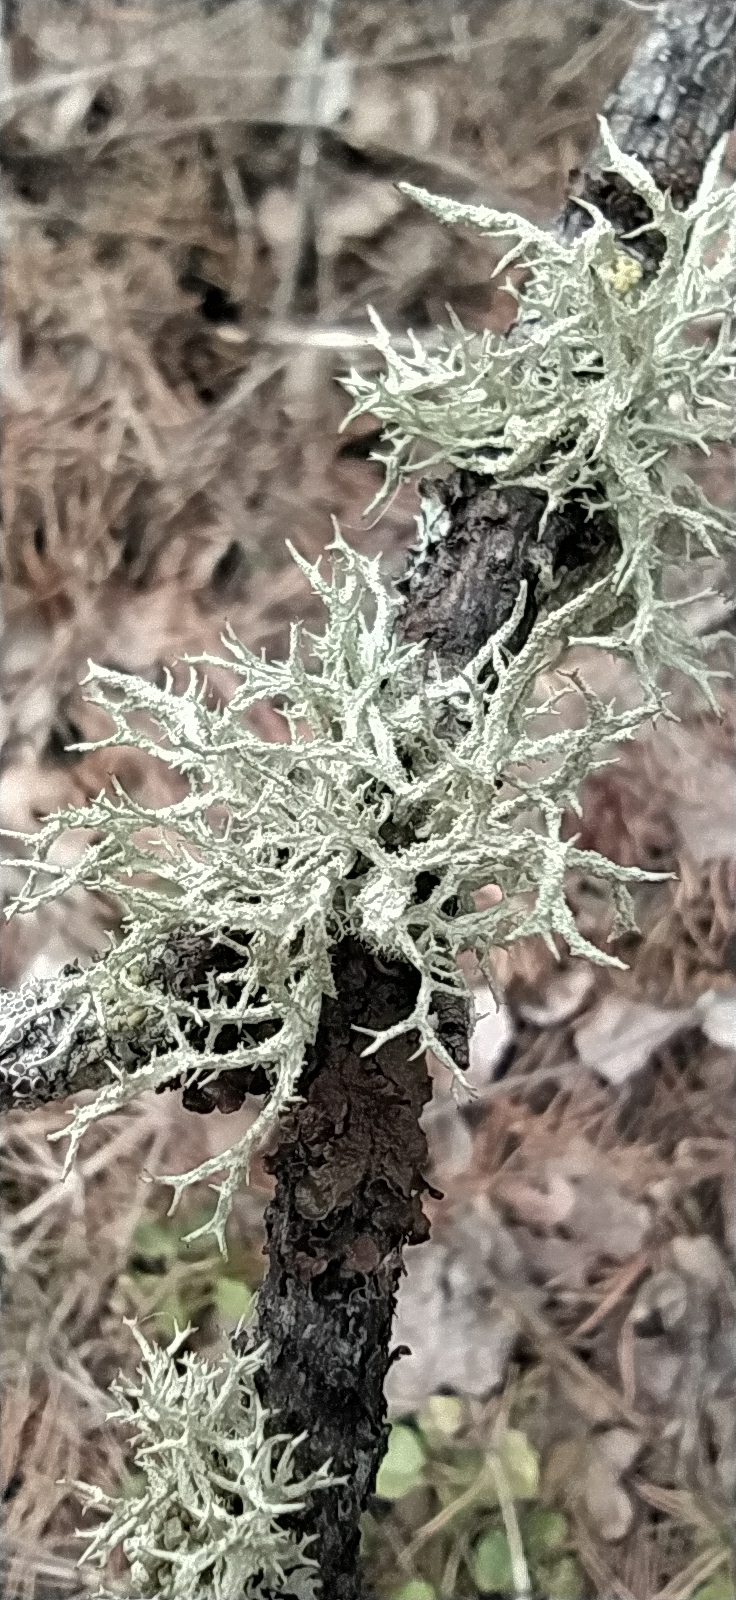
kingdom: Fungi
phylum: Ascomycota
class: Lecanoromycetes
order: Lecanorales
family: Parmeliaceae
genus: Evernia
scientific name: Evernia mesomorpha
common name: Boreal oak moss lichen
